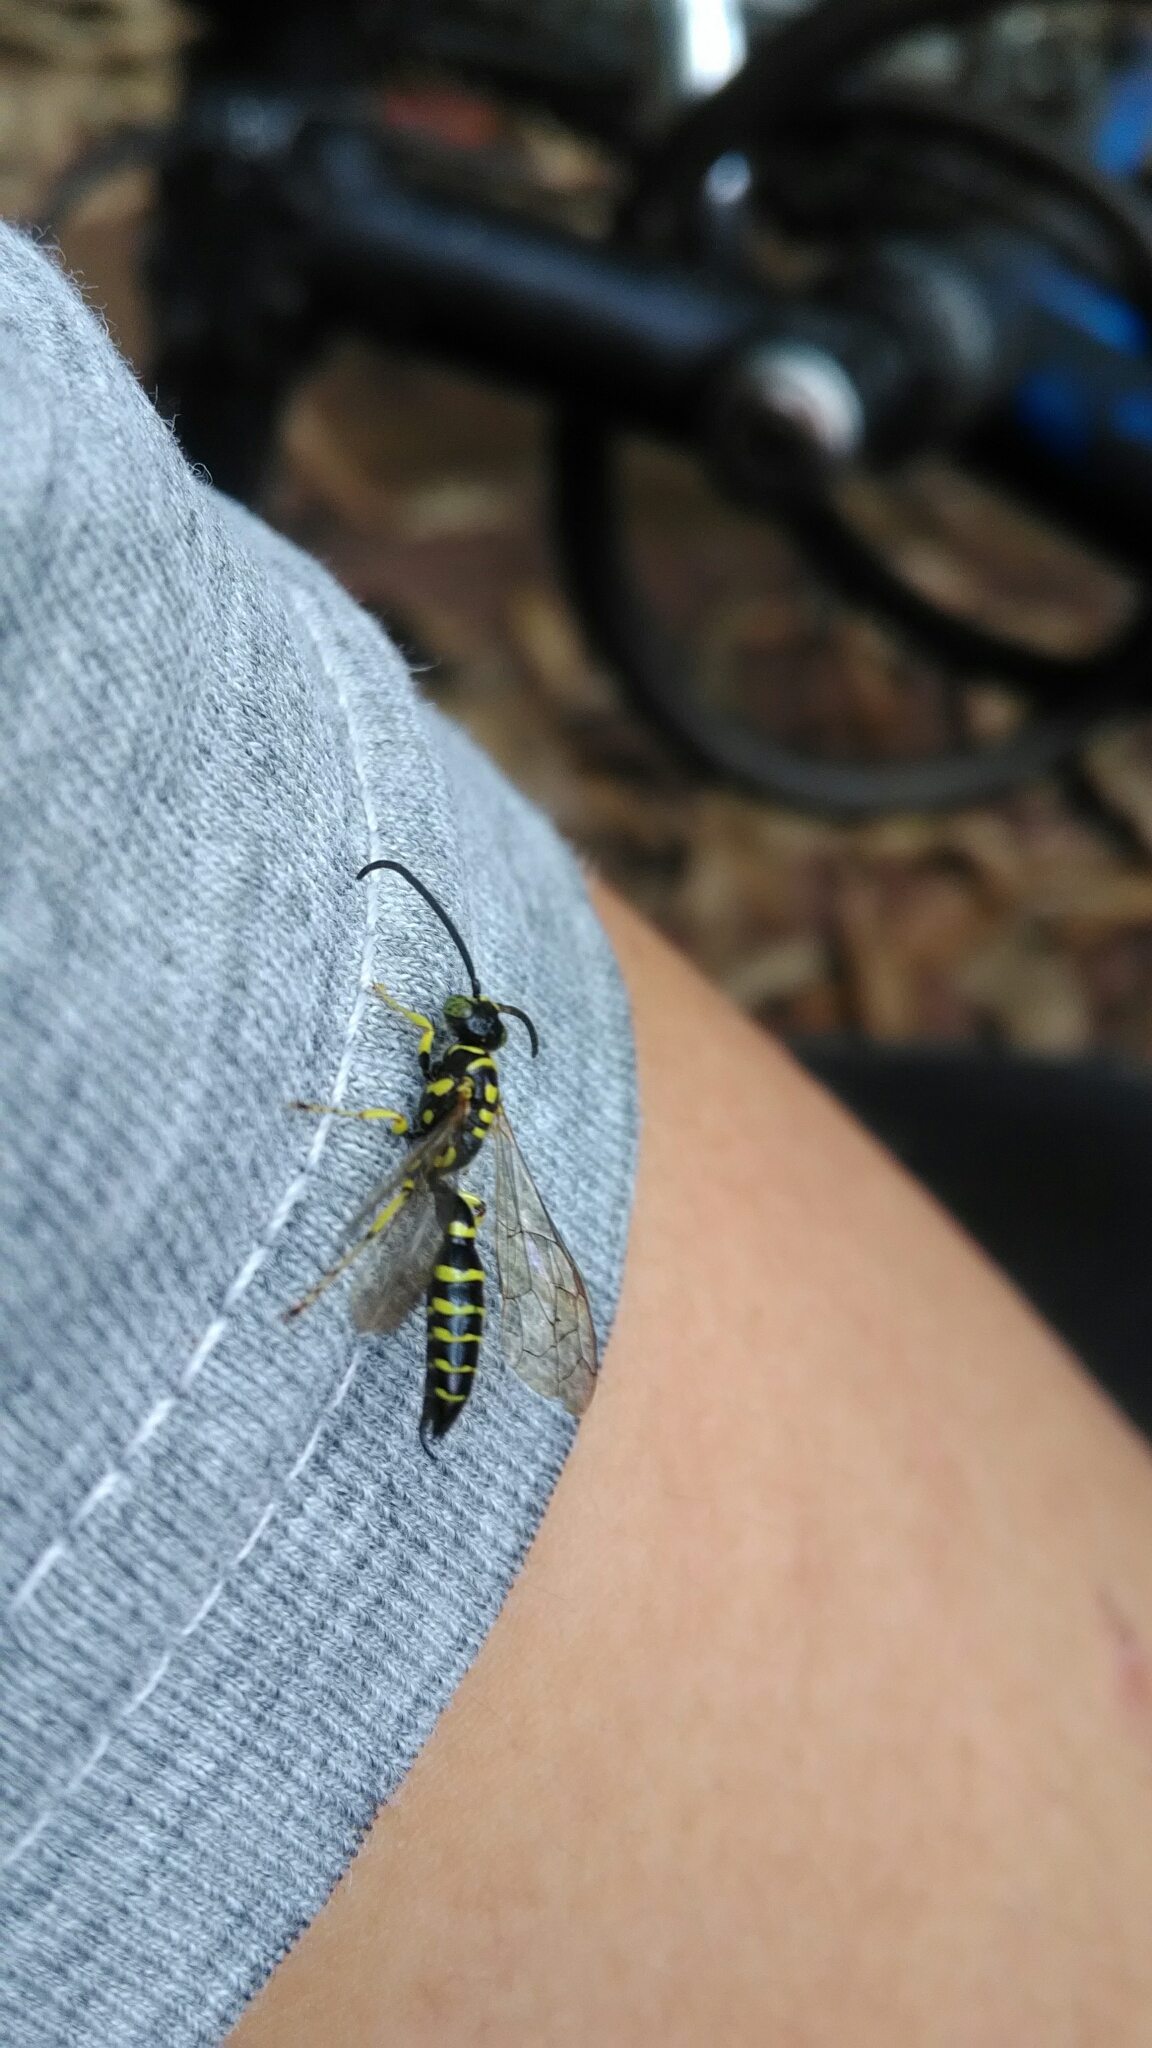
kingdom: Animalia
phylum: Arthropoda
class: Insecta
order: Hymenoptera
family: Tiphiidae
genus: Myzinum
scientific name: Myzinum
